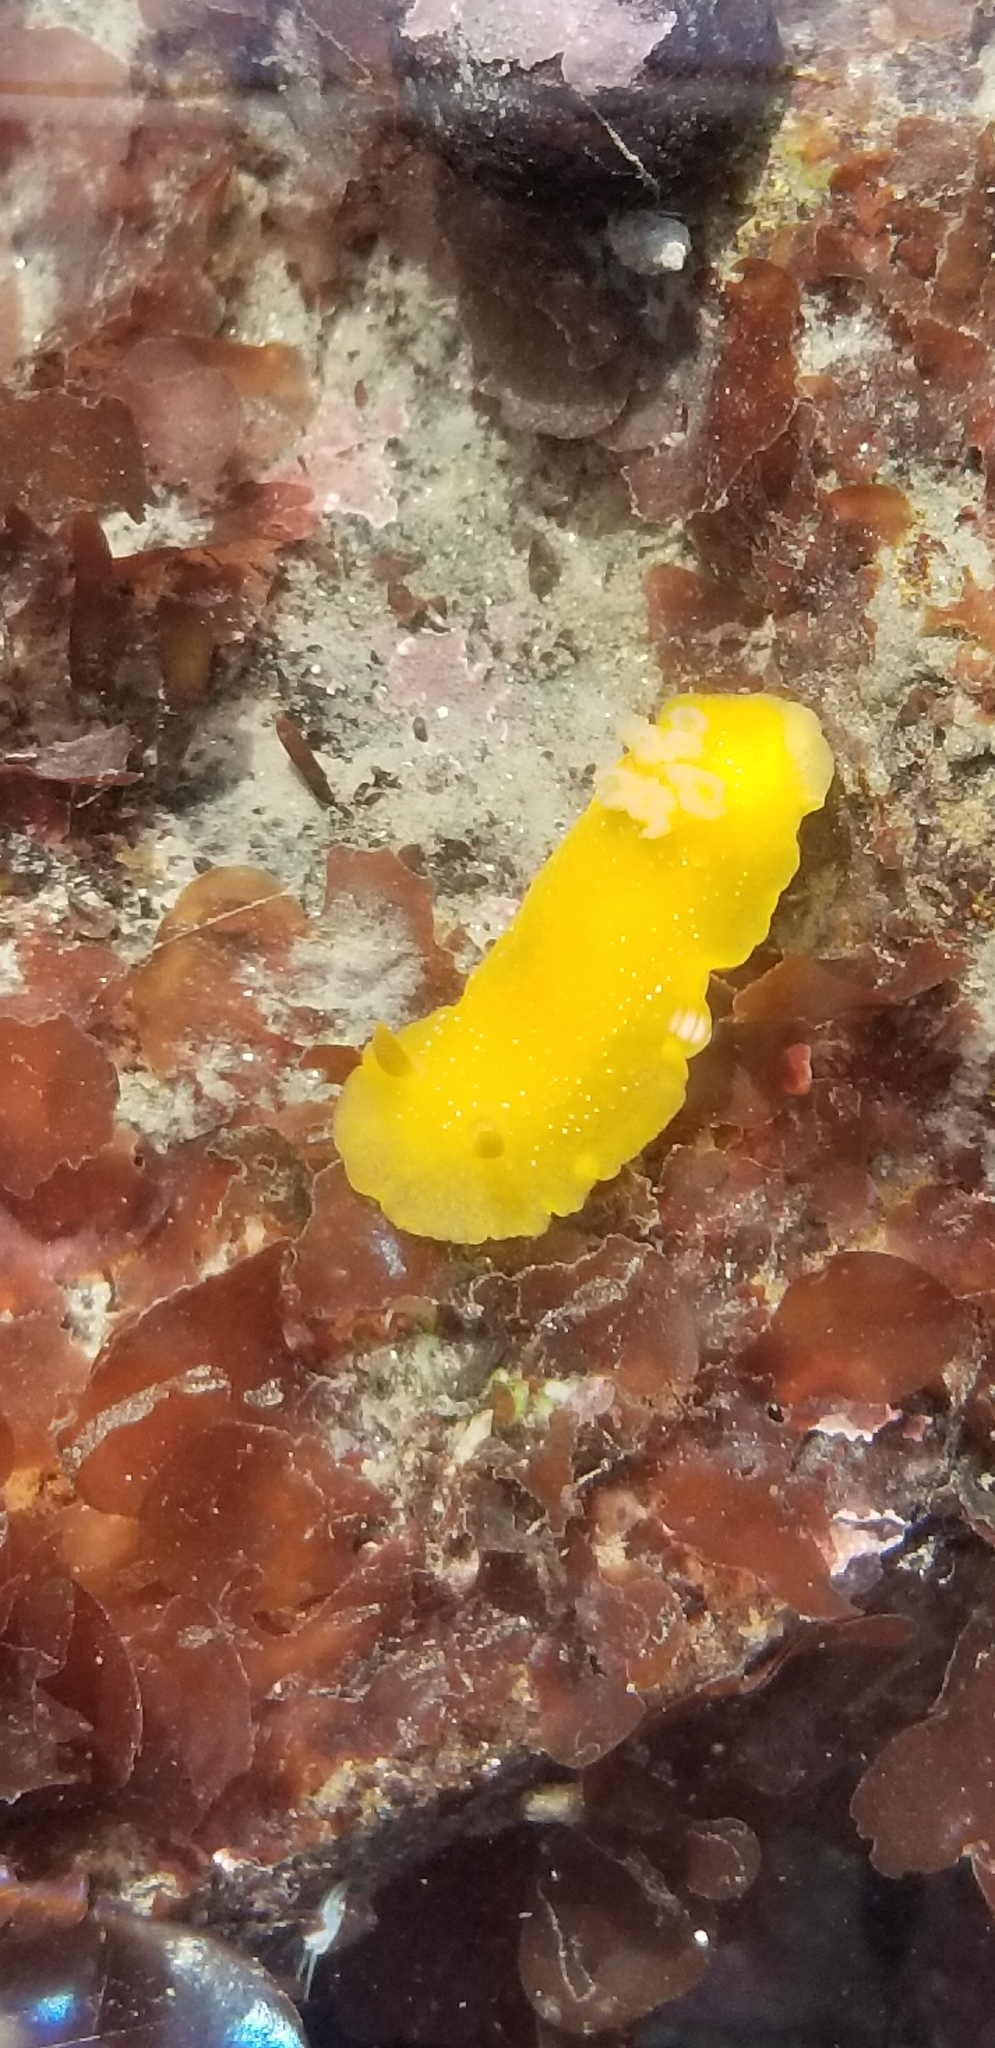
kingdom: Animalia
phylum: Mollusca
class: Gastropoda
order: Nudibranchia
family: Dendrodorididae
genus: Doriopsilla
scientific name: Doriopsilla fulva
